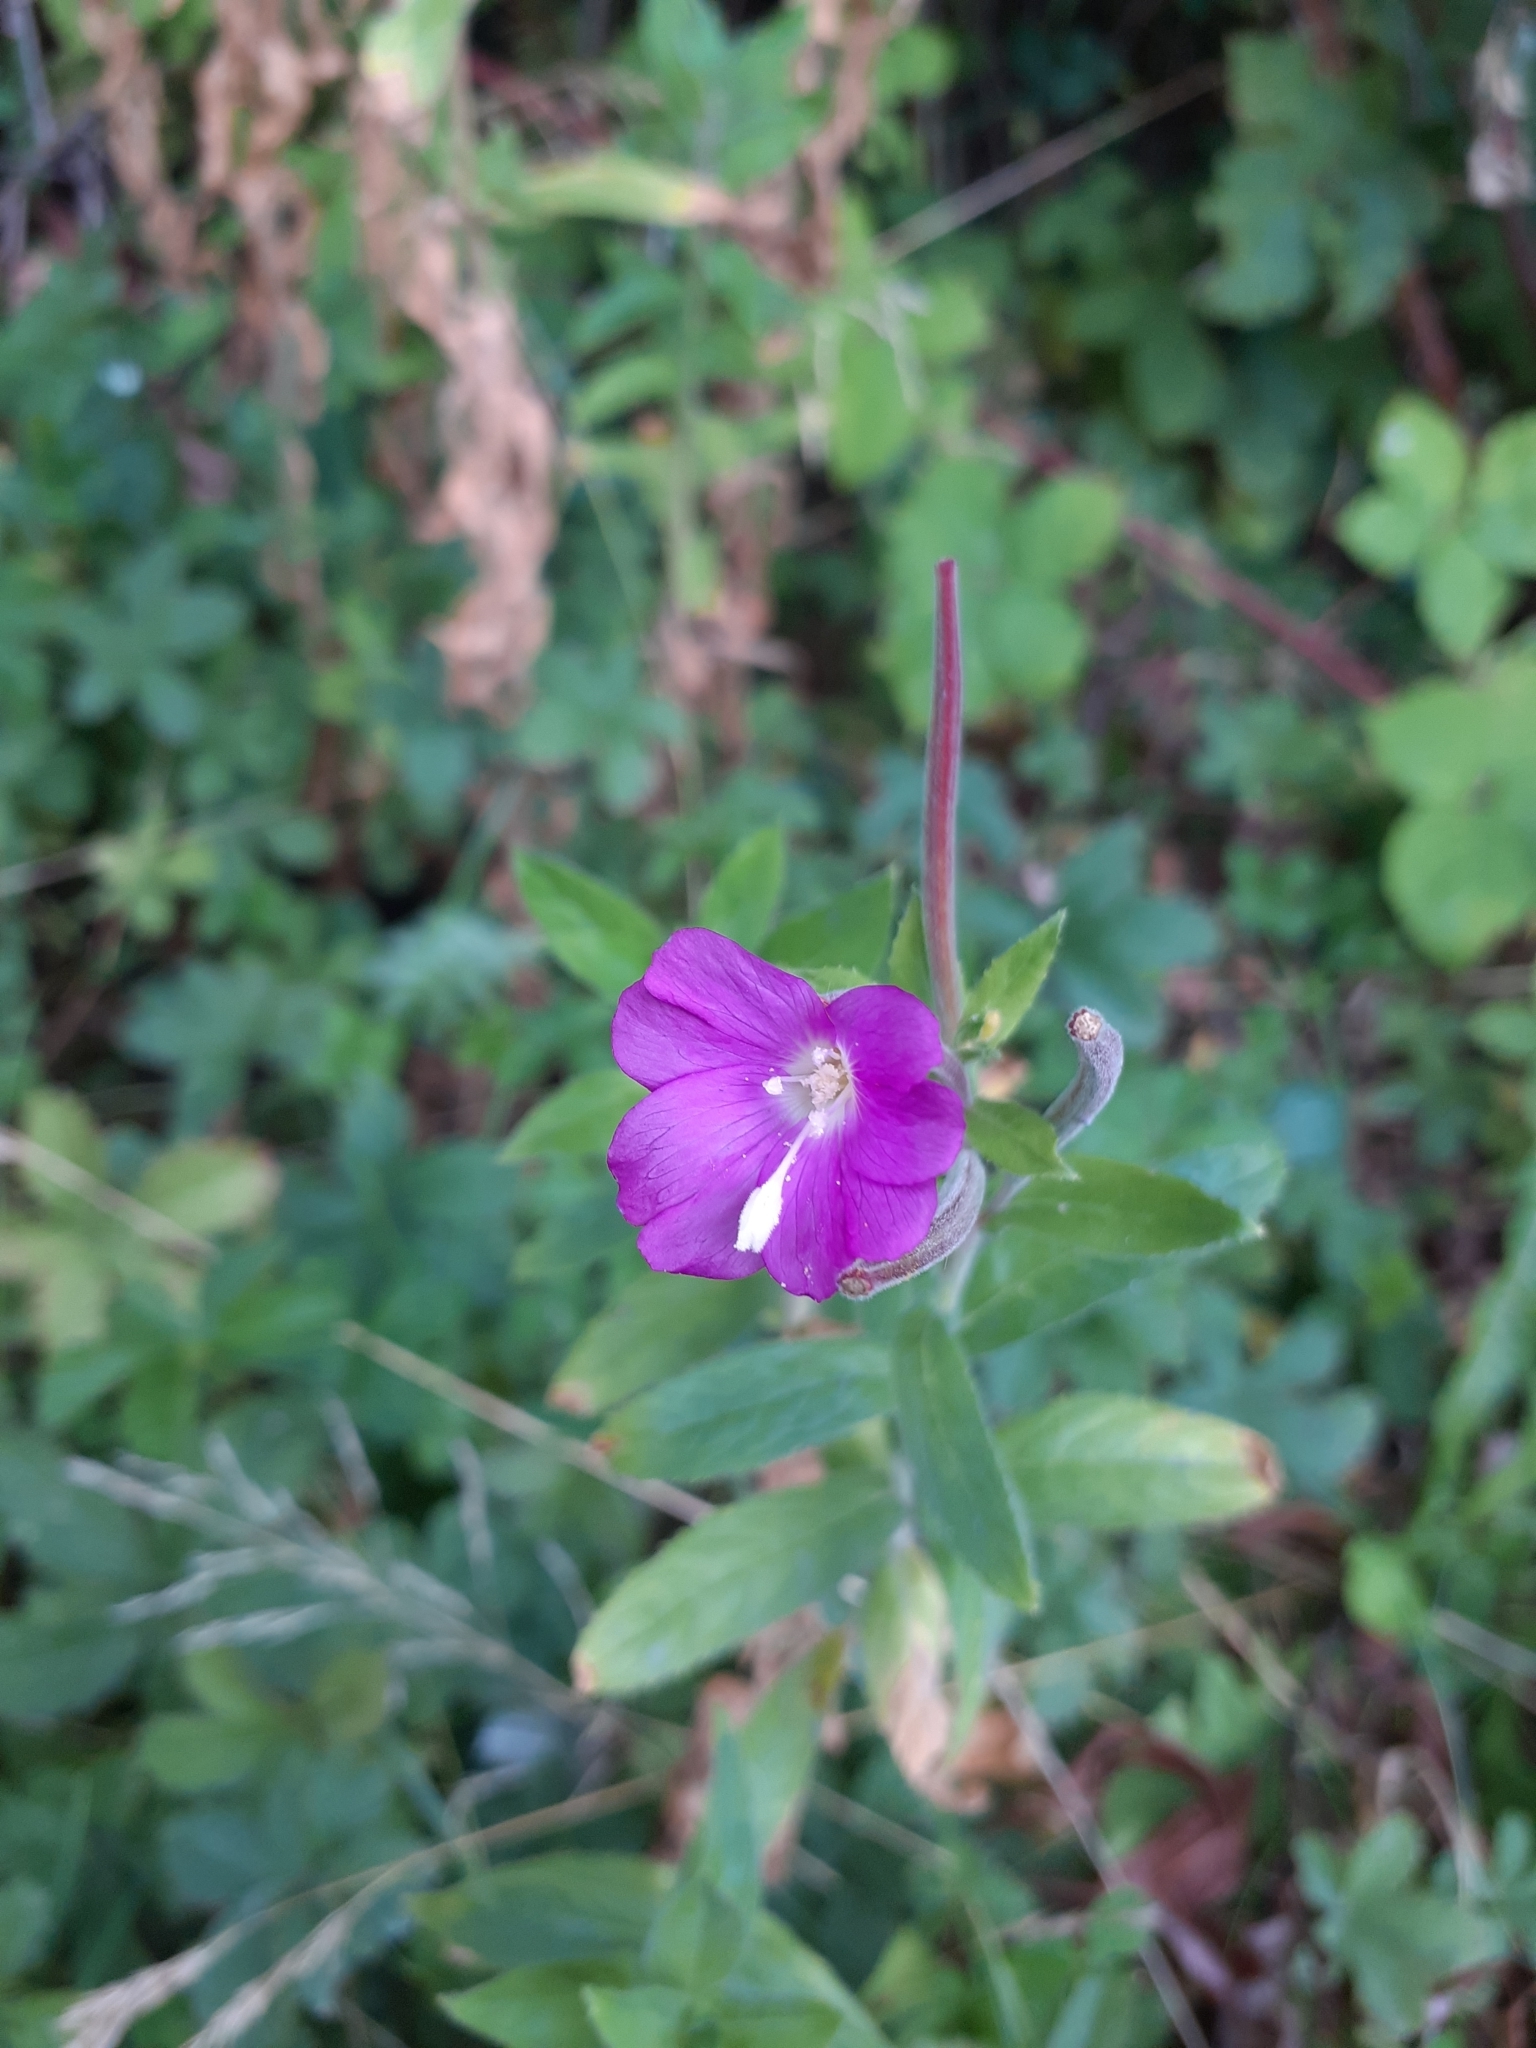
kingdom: Plantae
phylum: Tracheophyta
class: Magnoliopsida
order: Myrtales
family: Onagraceae
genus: Epilobium
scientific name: Epilobium hirsutum
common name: Great willowherb
